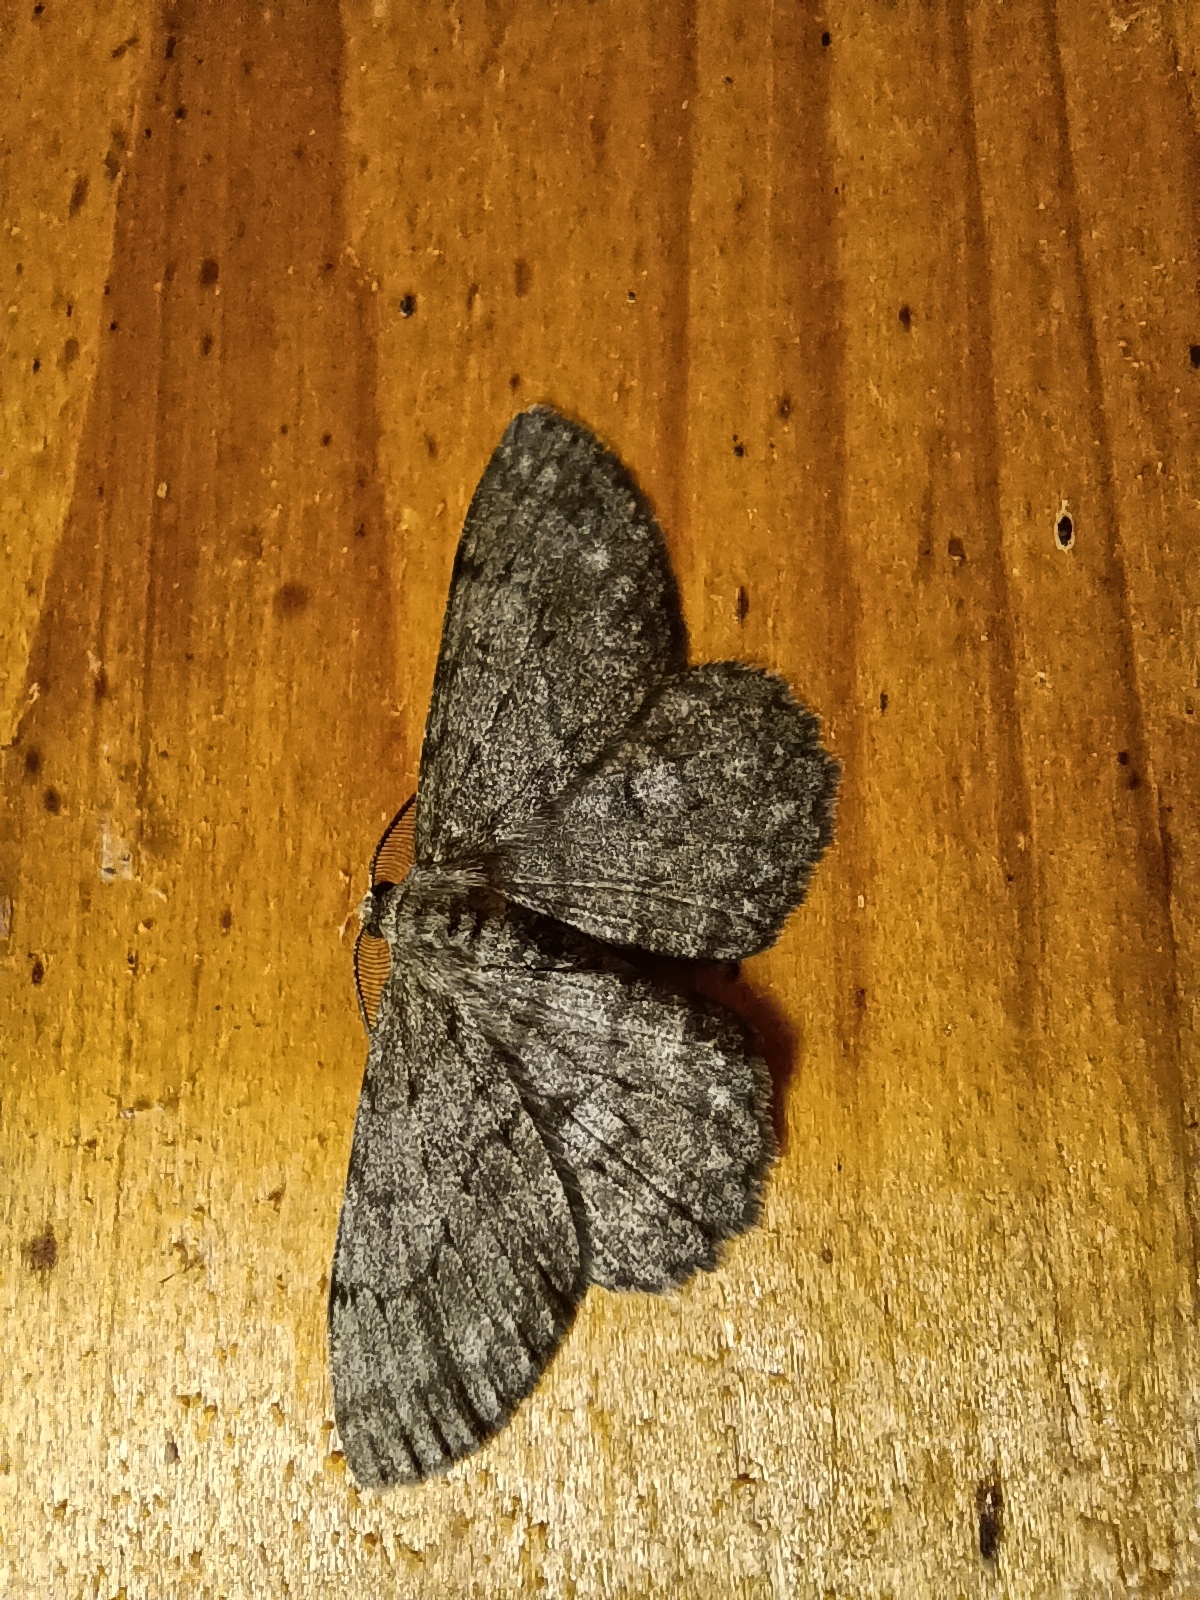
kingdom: Animalia
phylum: Arthropoda
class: Insecta
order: Lepidoptera
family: Geometridae
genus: Hypomecis
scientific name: Hypomecis punctinalis
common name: Pale oak beauty
